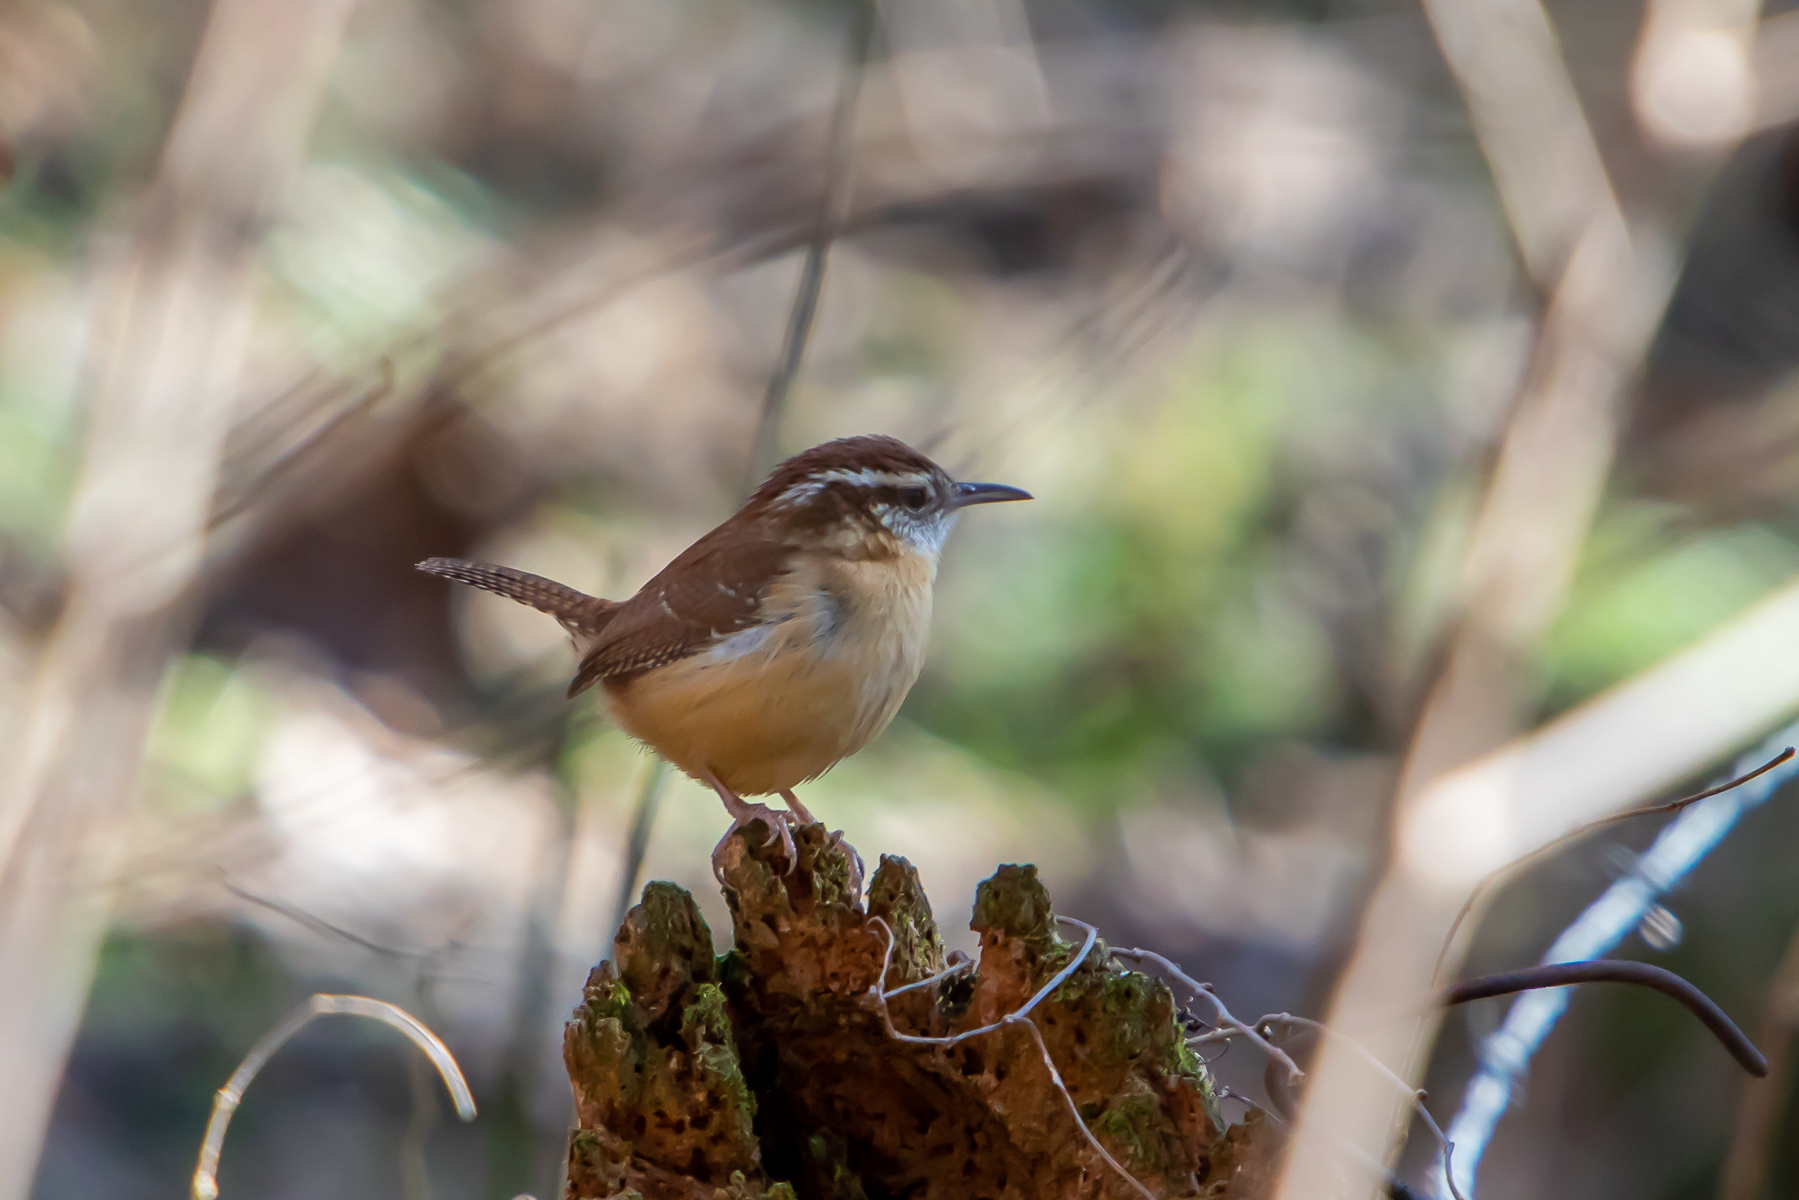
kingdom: Animalia
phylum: Chordata
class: Aves
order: Passeriformes
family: Troglodytidae
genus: Thryothorus
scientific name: Thryothorus ludovicianus
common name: Carolina wren
